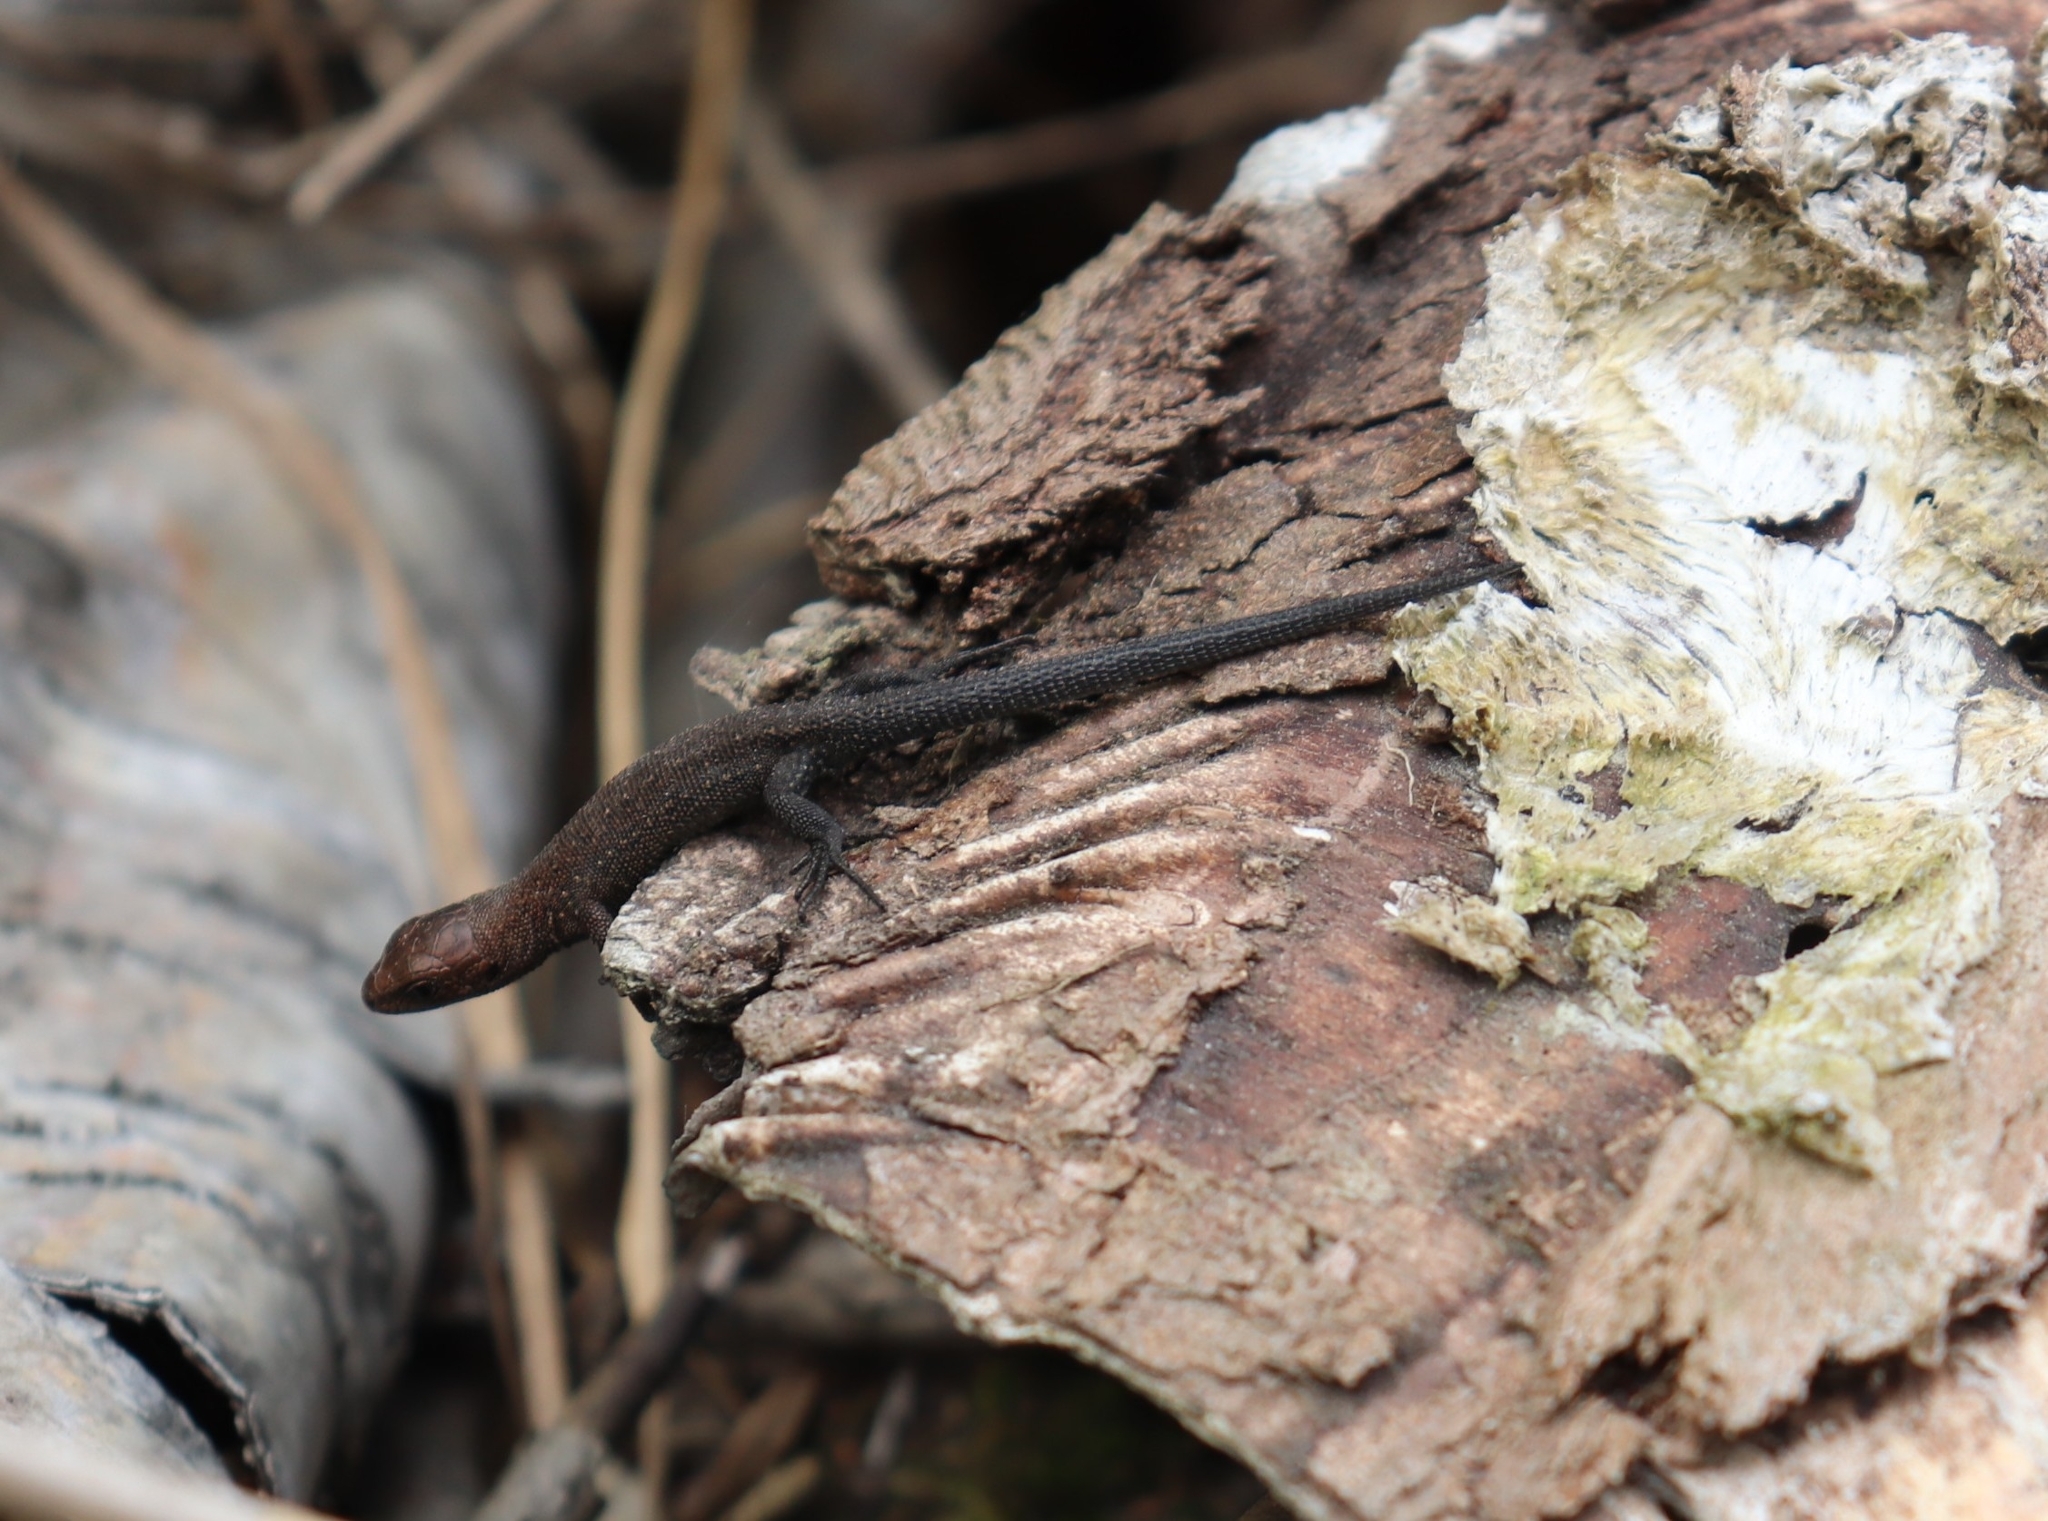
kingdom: Animalia
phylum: Chordata
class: Squamata
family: Lacertidae
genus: Zootoca
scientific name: Zootoca vivipara
